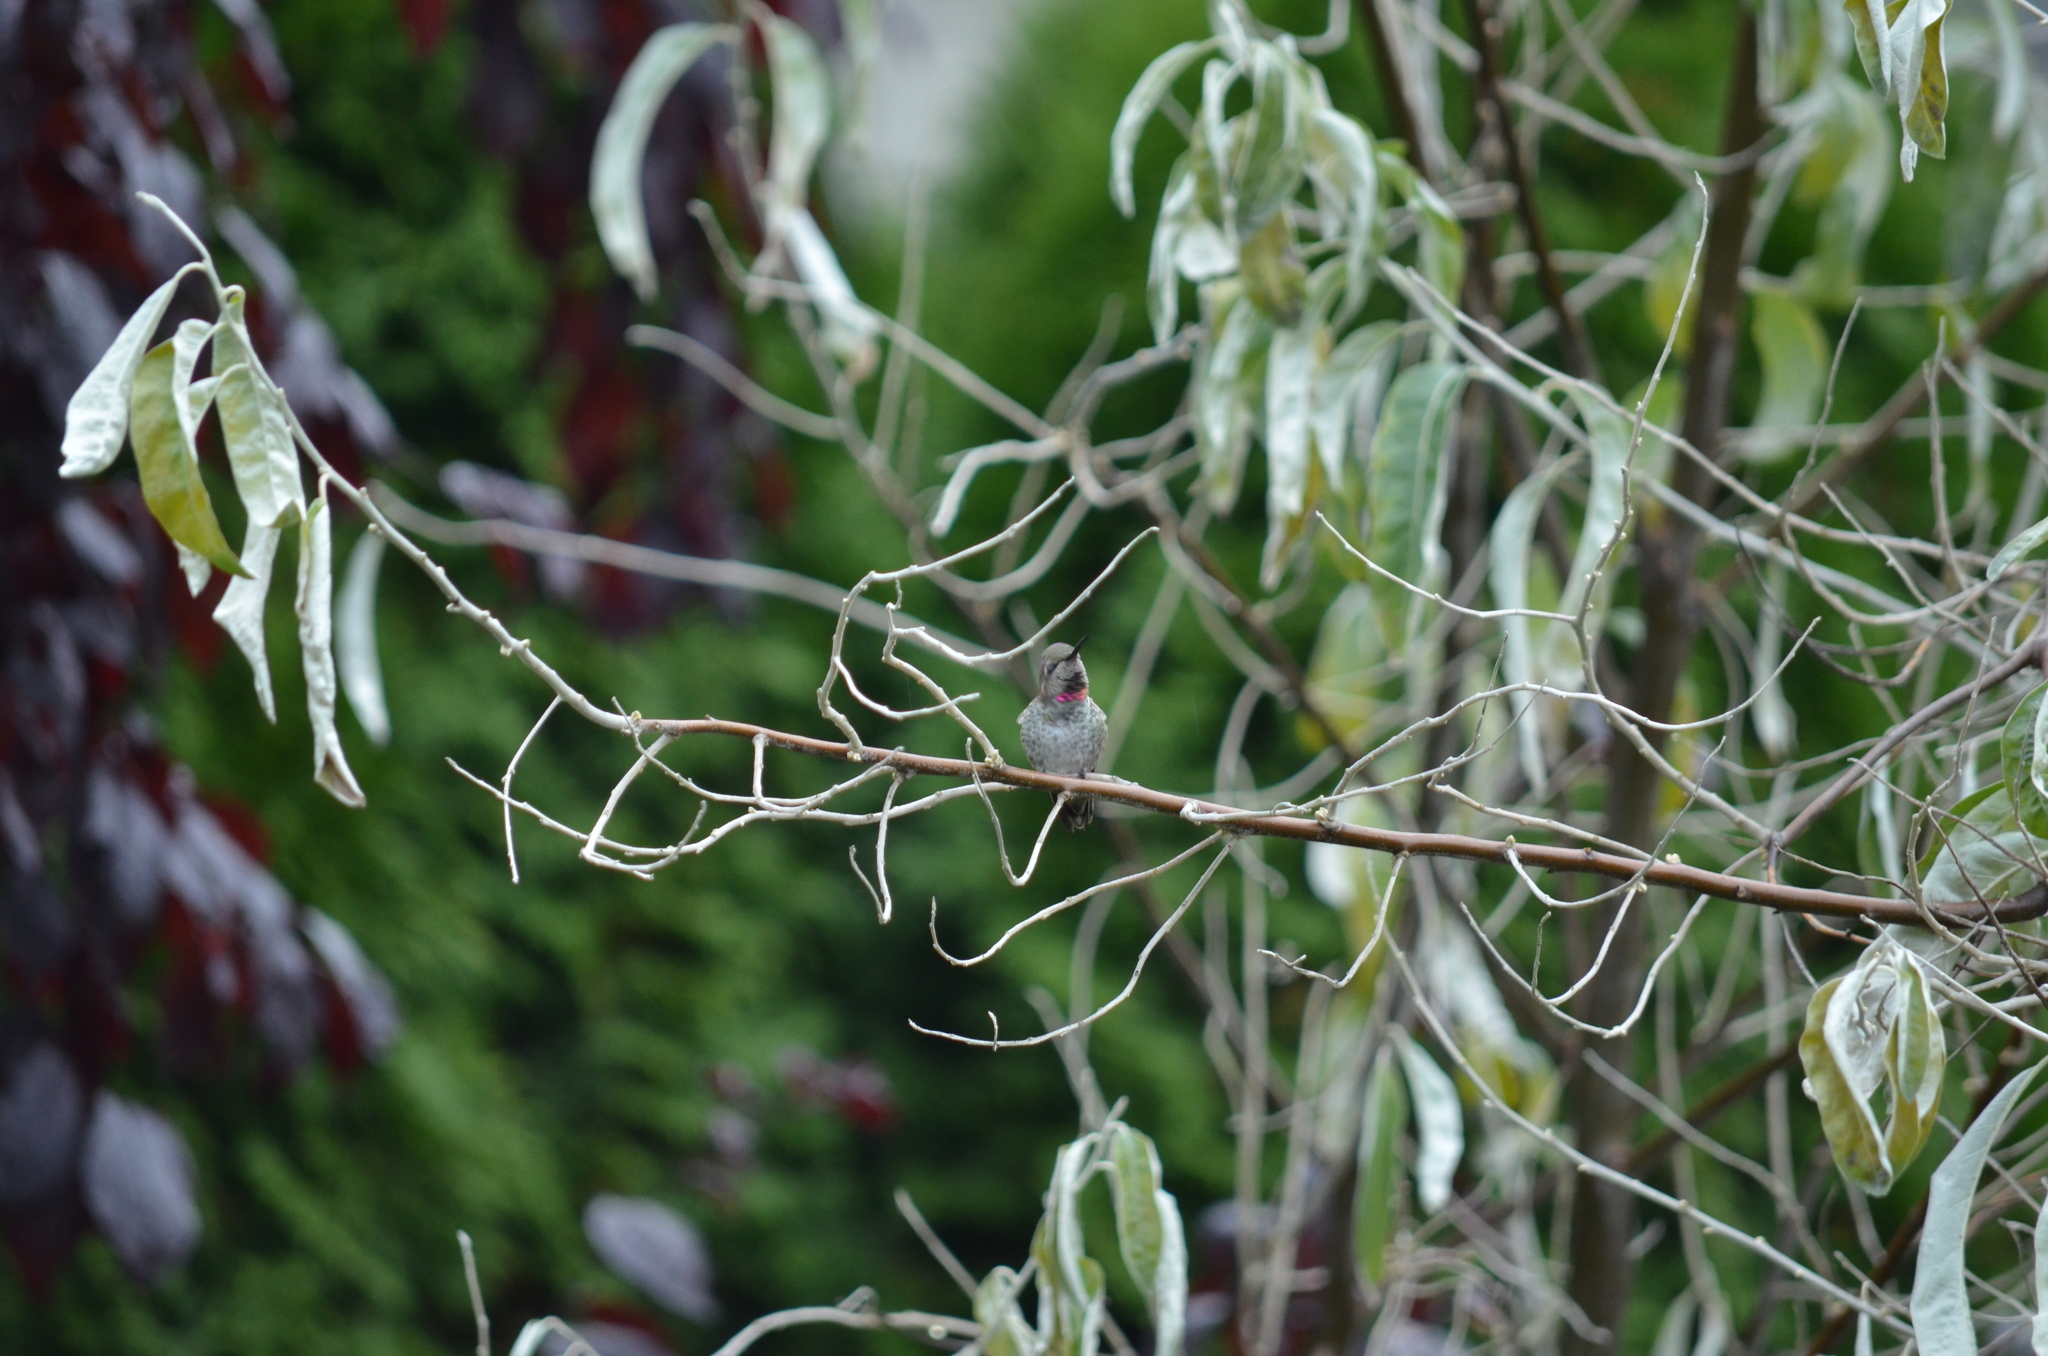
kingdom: Animalia
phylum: Chordata
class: Aves
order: Apodiformes
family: Trochilidae
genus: Calypte
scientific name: Calypte anna
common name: Anna's hummingbird
